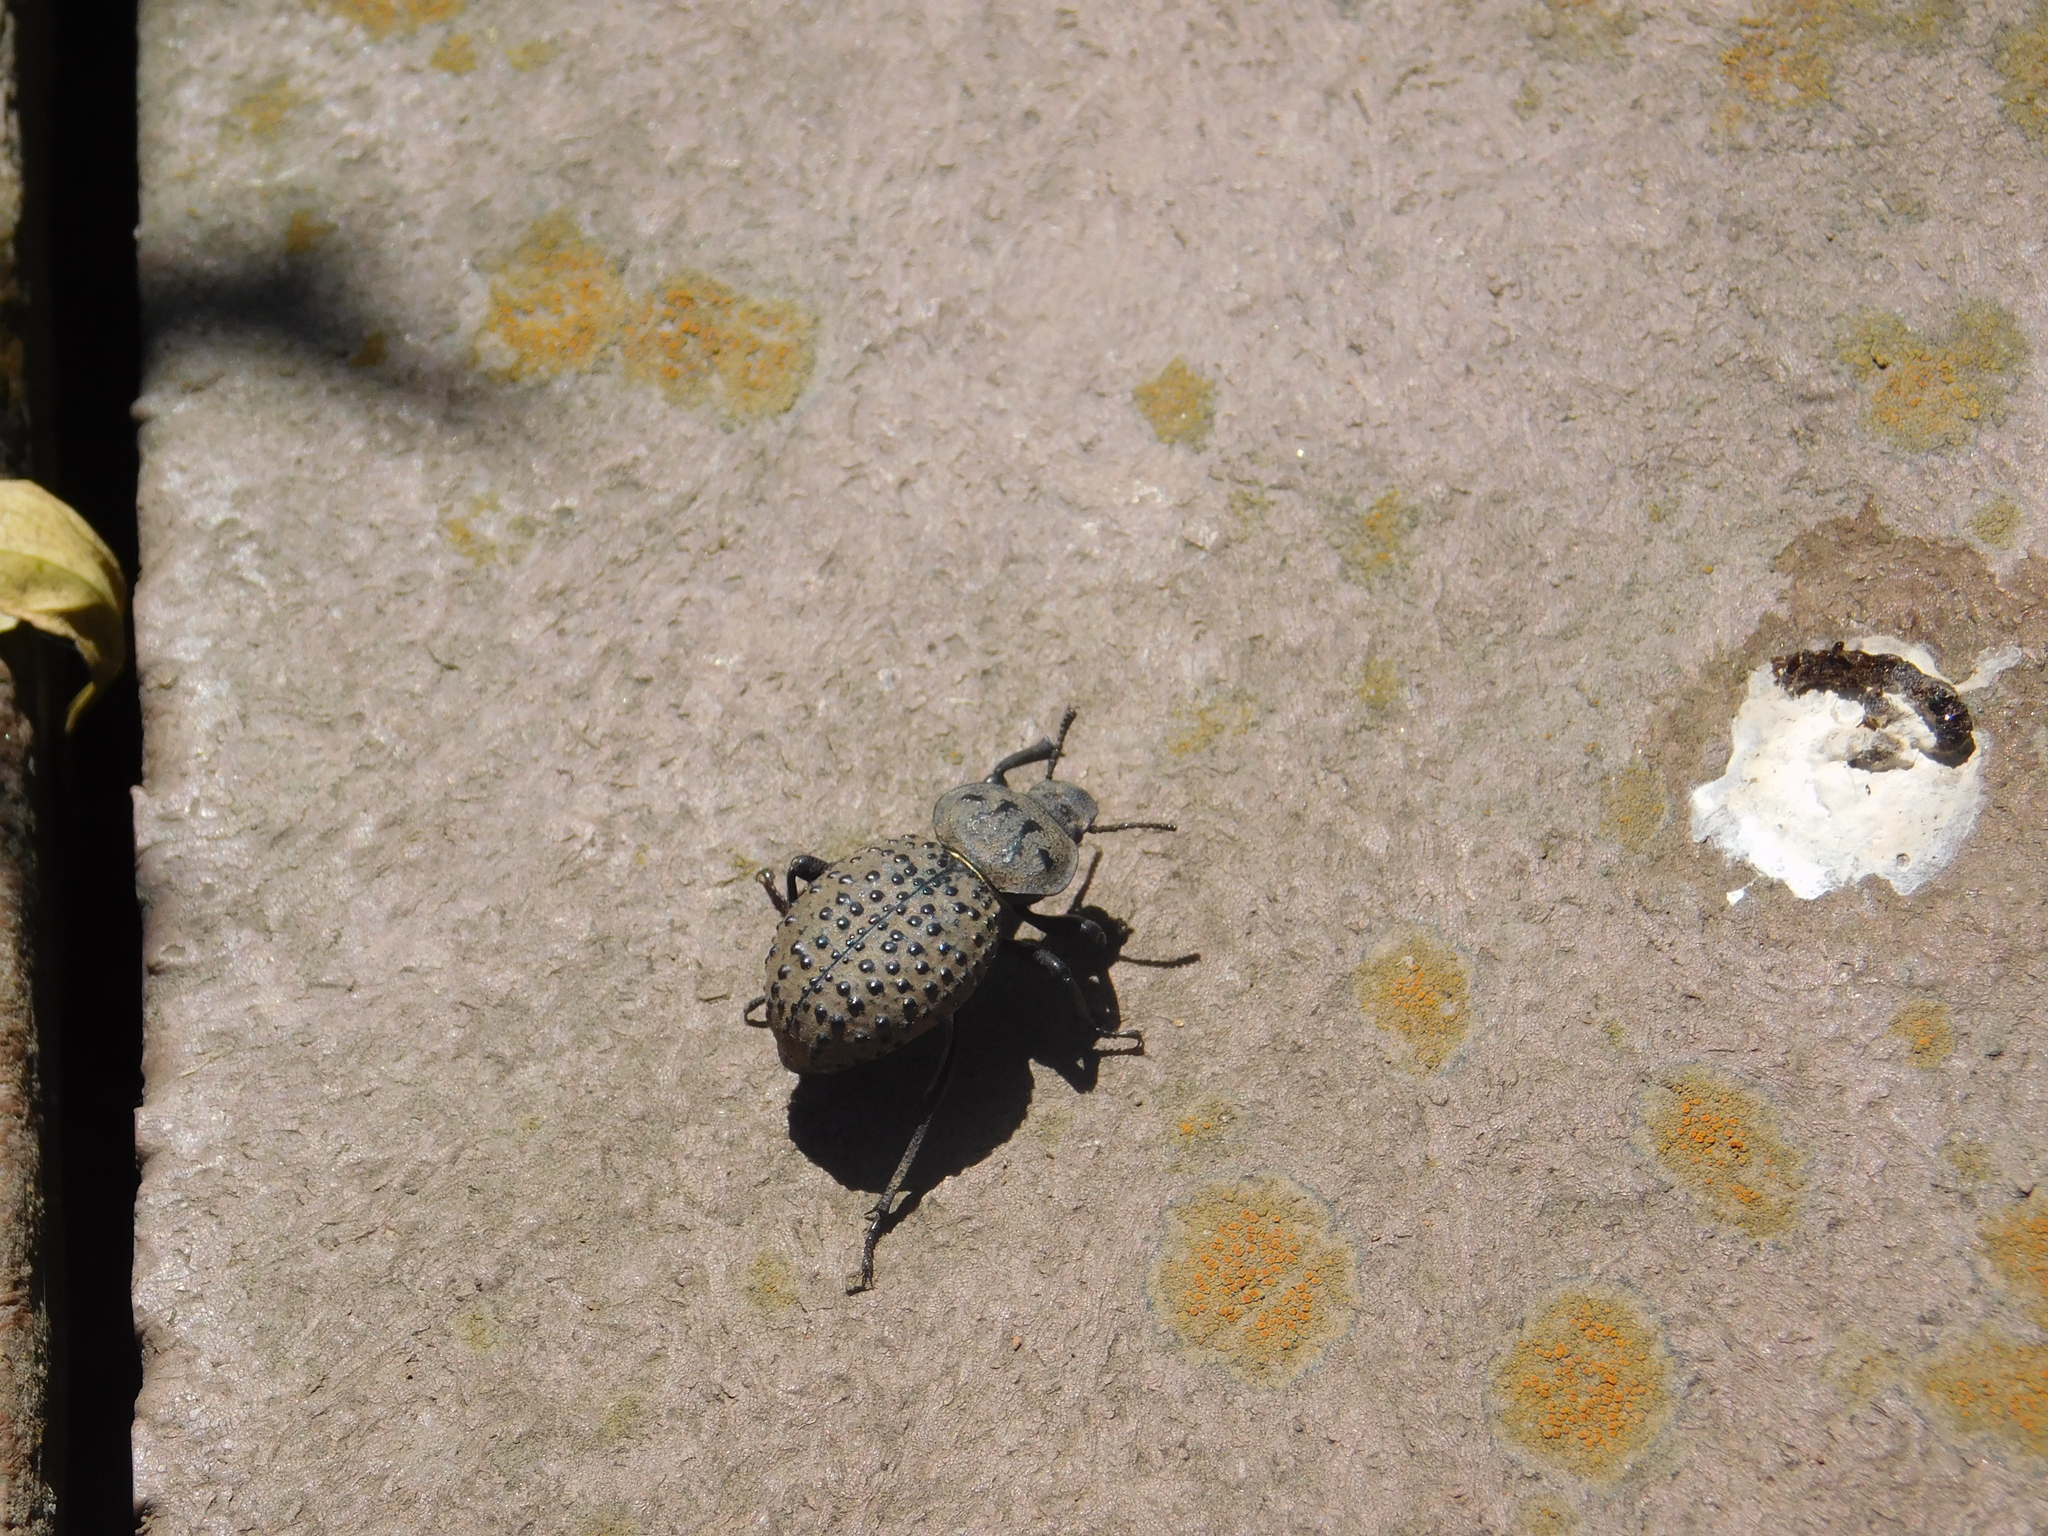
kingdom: Animalia
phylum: Arthropoda
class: Insecta
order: Coleoptera
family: Tenebrionidae
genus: Scotobius
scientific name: Scotobius pilularius
